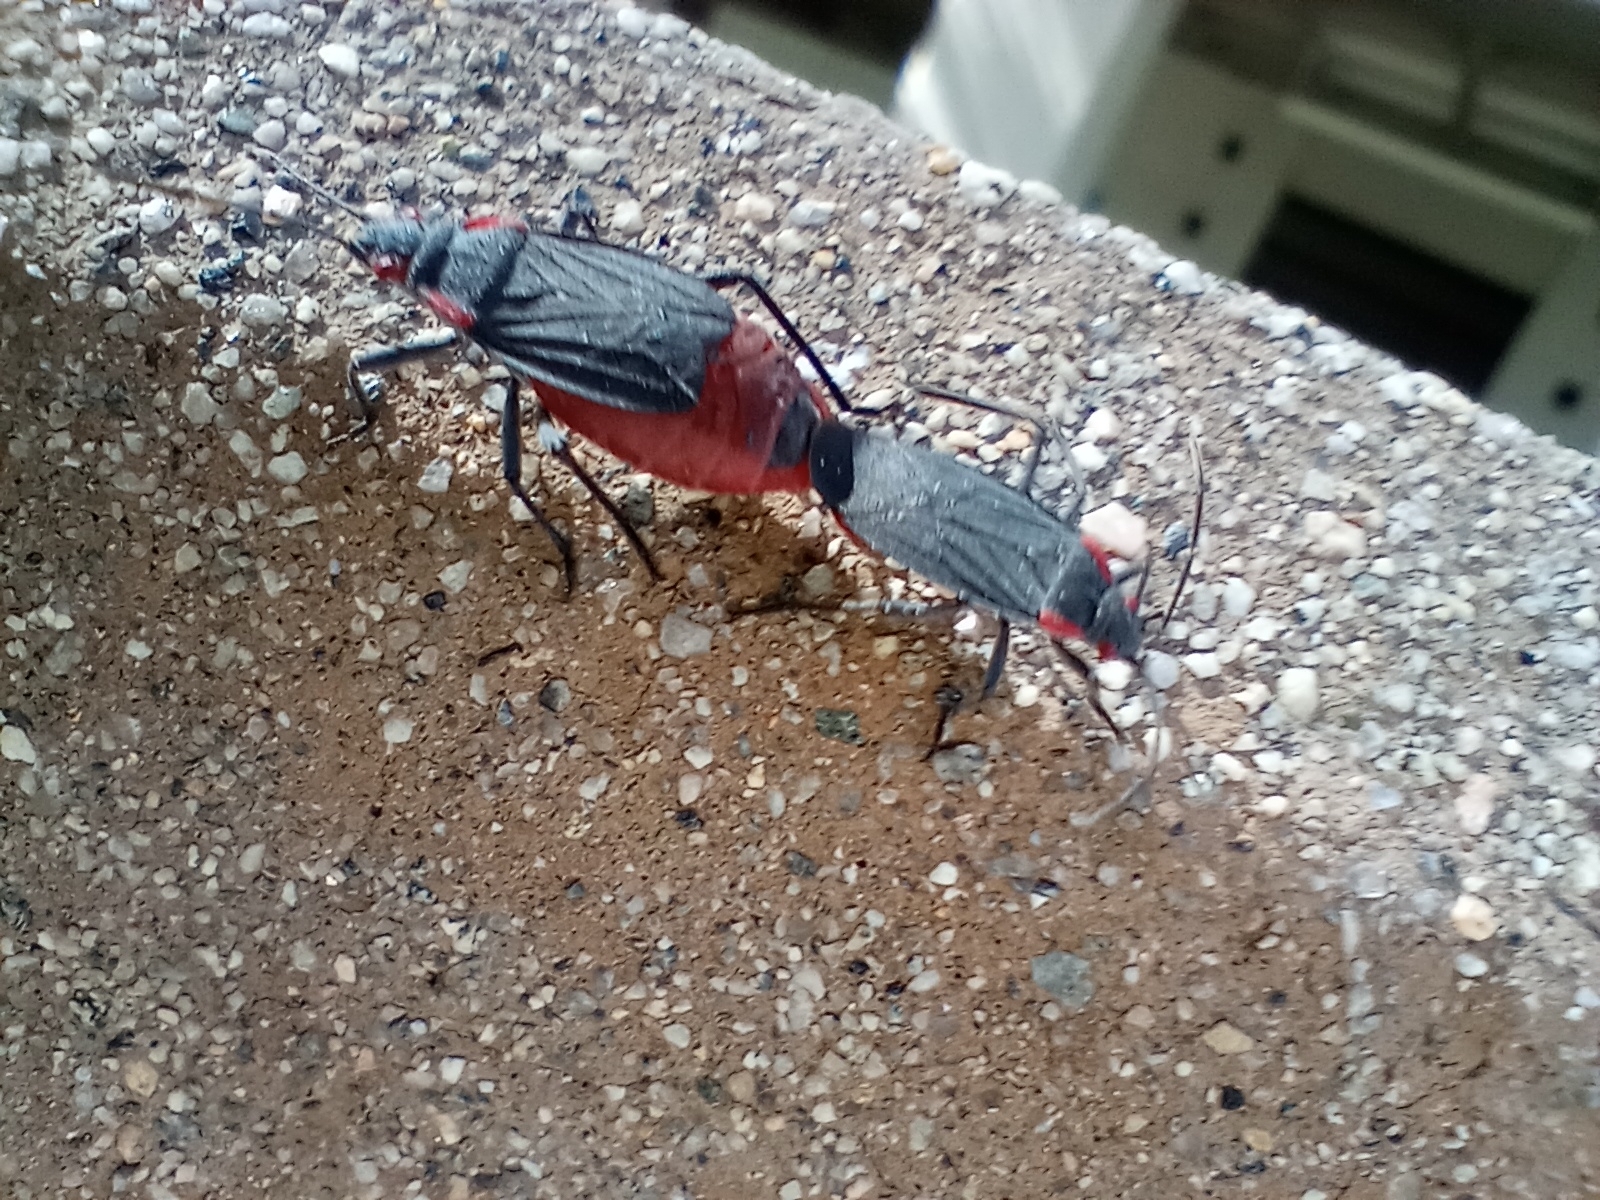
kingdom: Animalia
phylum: Arthropoda
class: Insecta
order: Hemiptera
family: Rhopalidae
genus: Jadera
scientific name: Jadera haematoloma
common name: Red-shouldered bug
